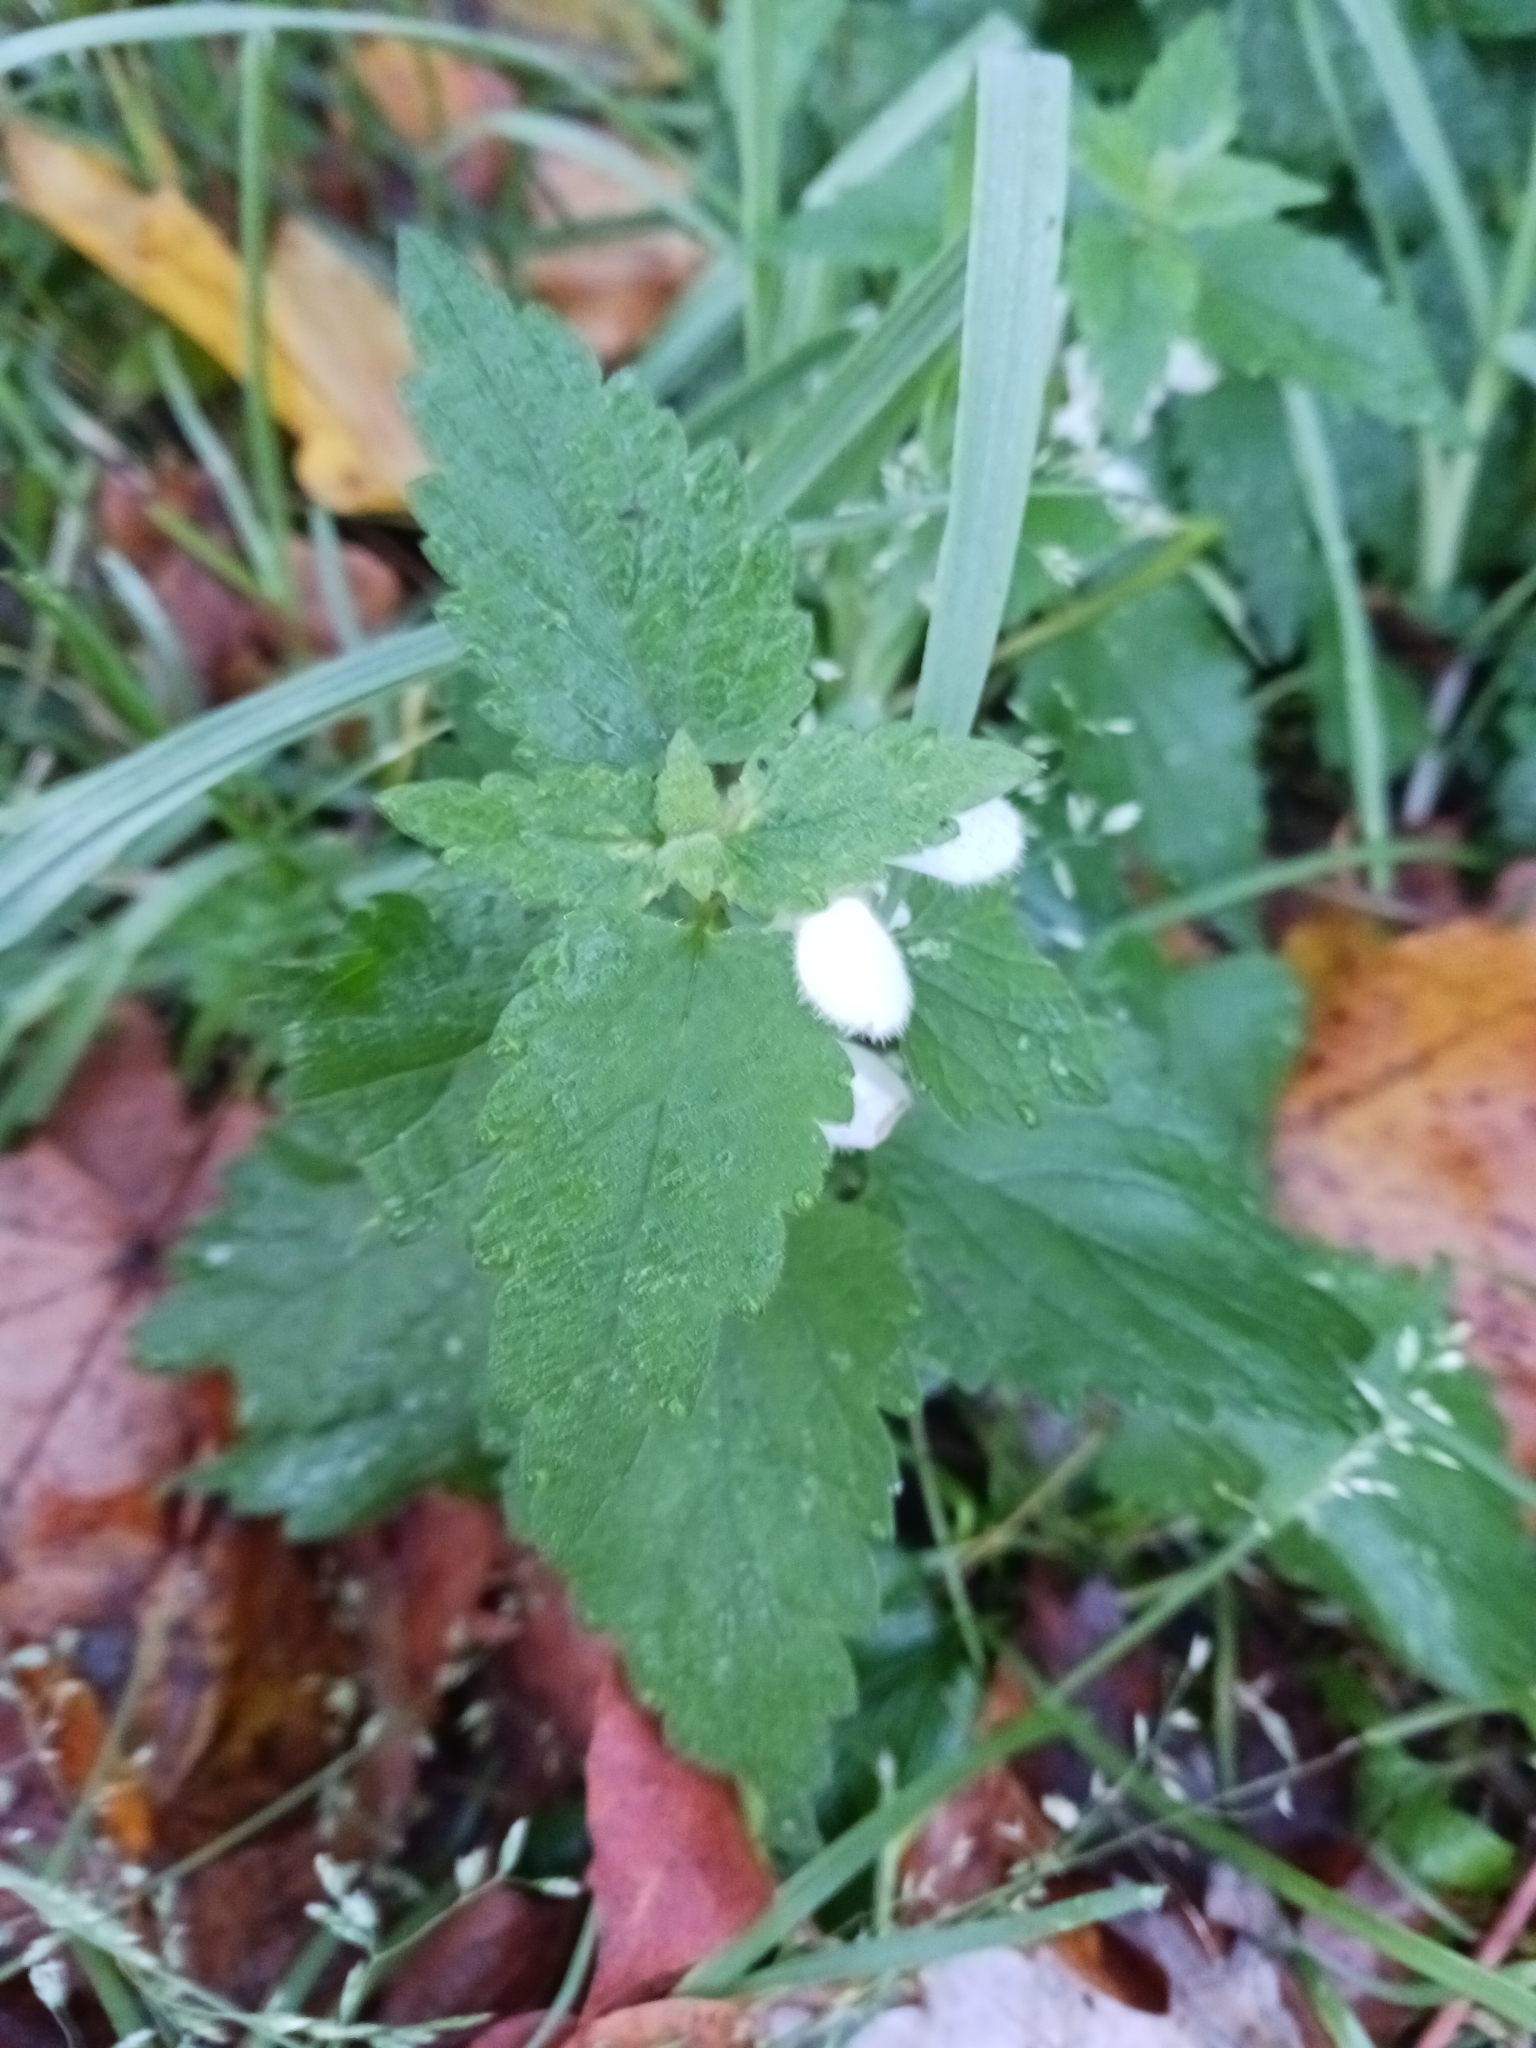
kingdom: Plantae
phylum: Tracheophyta
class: Magnoliopsida
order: Lamiales
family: Lamiaceae
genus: Lamium
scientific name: Lamium album
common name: White dead-nettle
